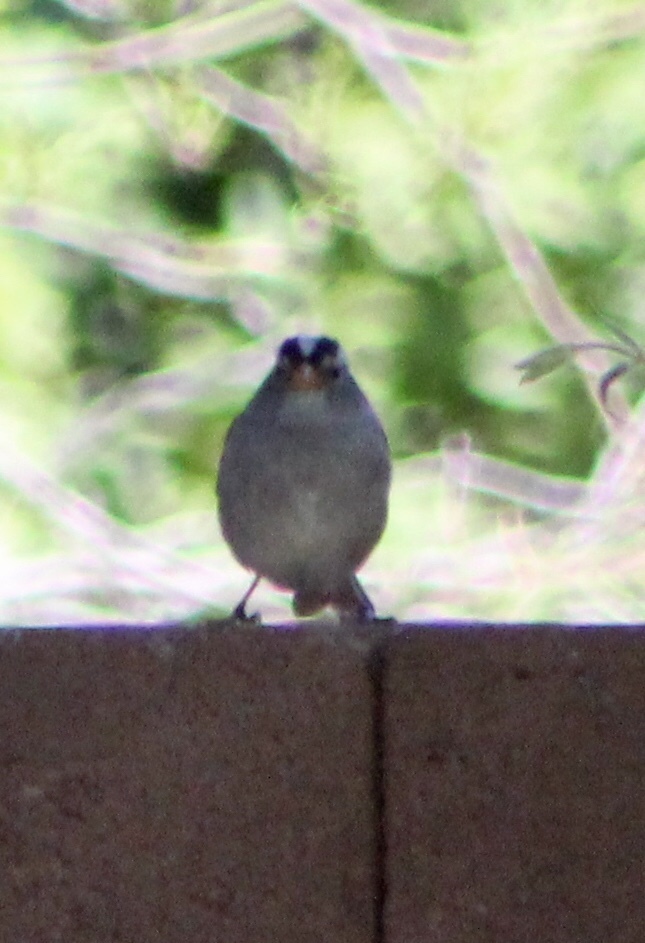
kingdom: Animalia
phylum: Chordata
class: Aves
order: Passeriformes
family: Passerellidae
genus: Zonotrichia
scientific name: Zonotrichia leucophrys
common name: White-crowned sparrow
